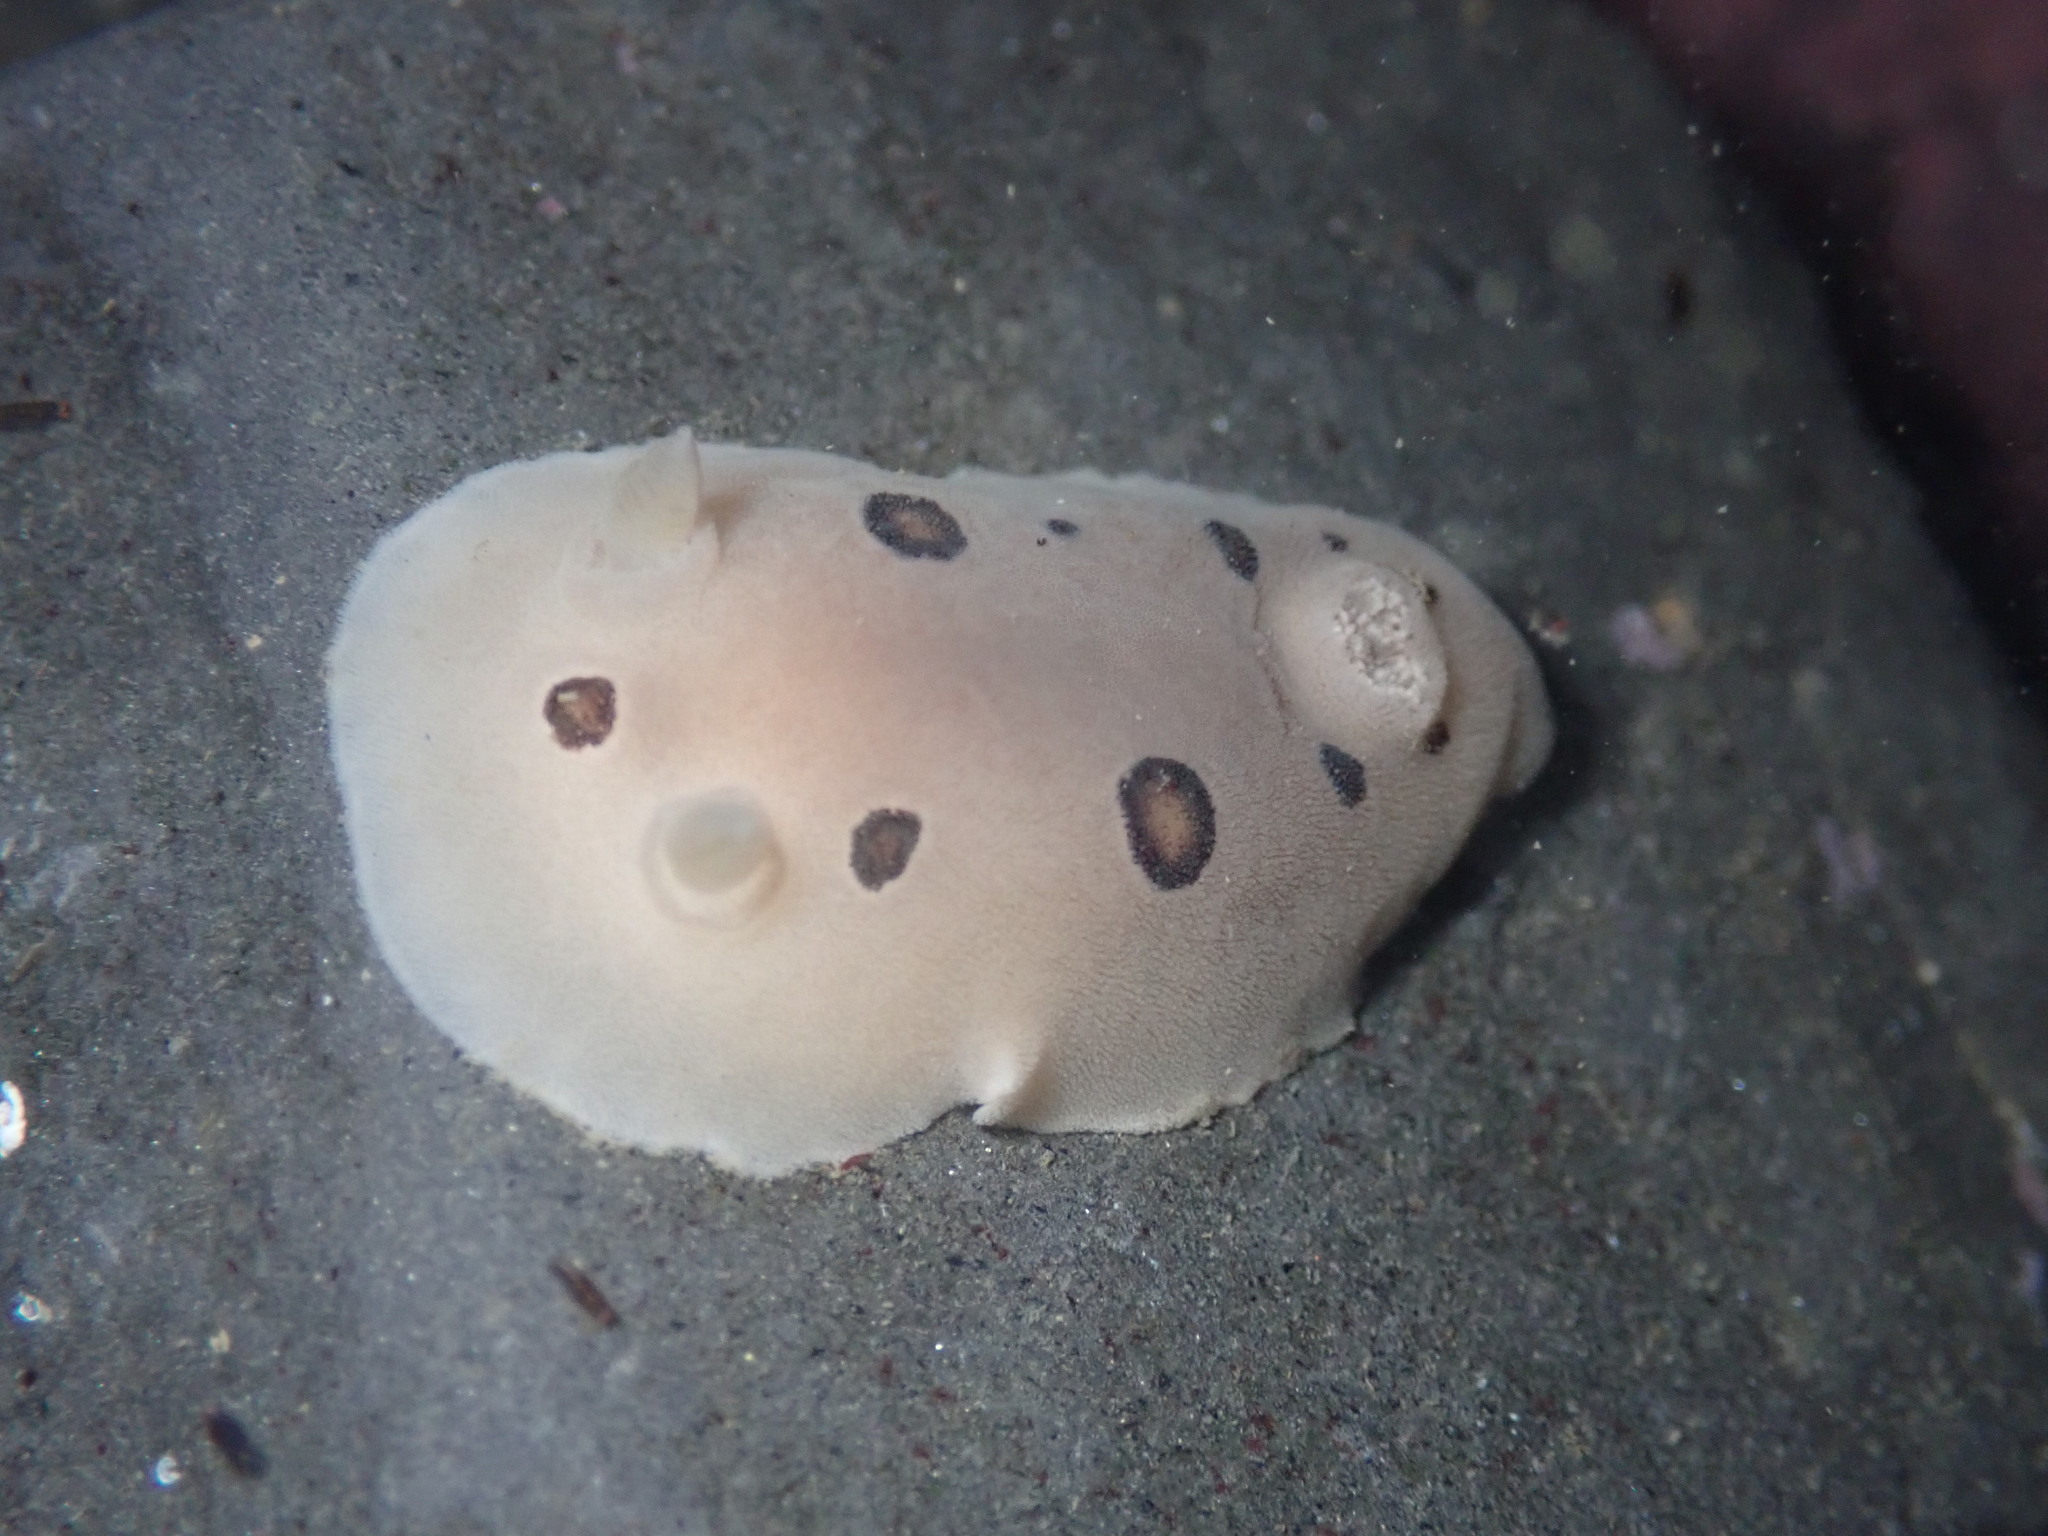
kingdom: Animalia
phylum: Mollusca
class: Gastropoda
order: Nudibranchia
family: Discodorididae
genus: Diaulula
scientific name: Diaulula sandiegensis
